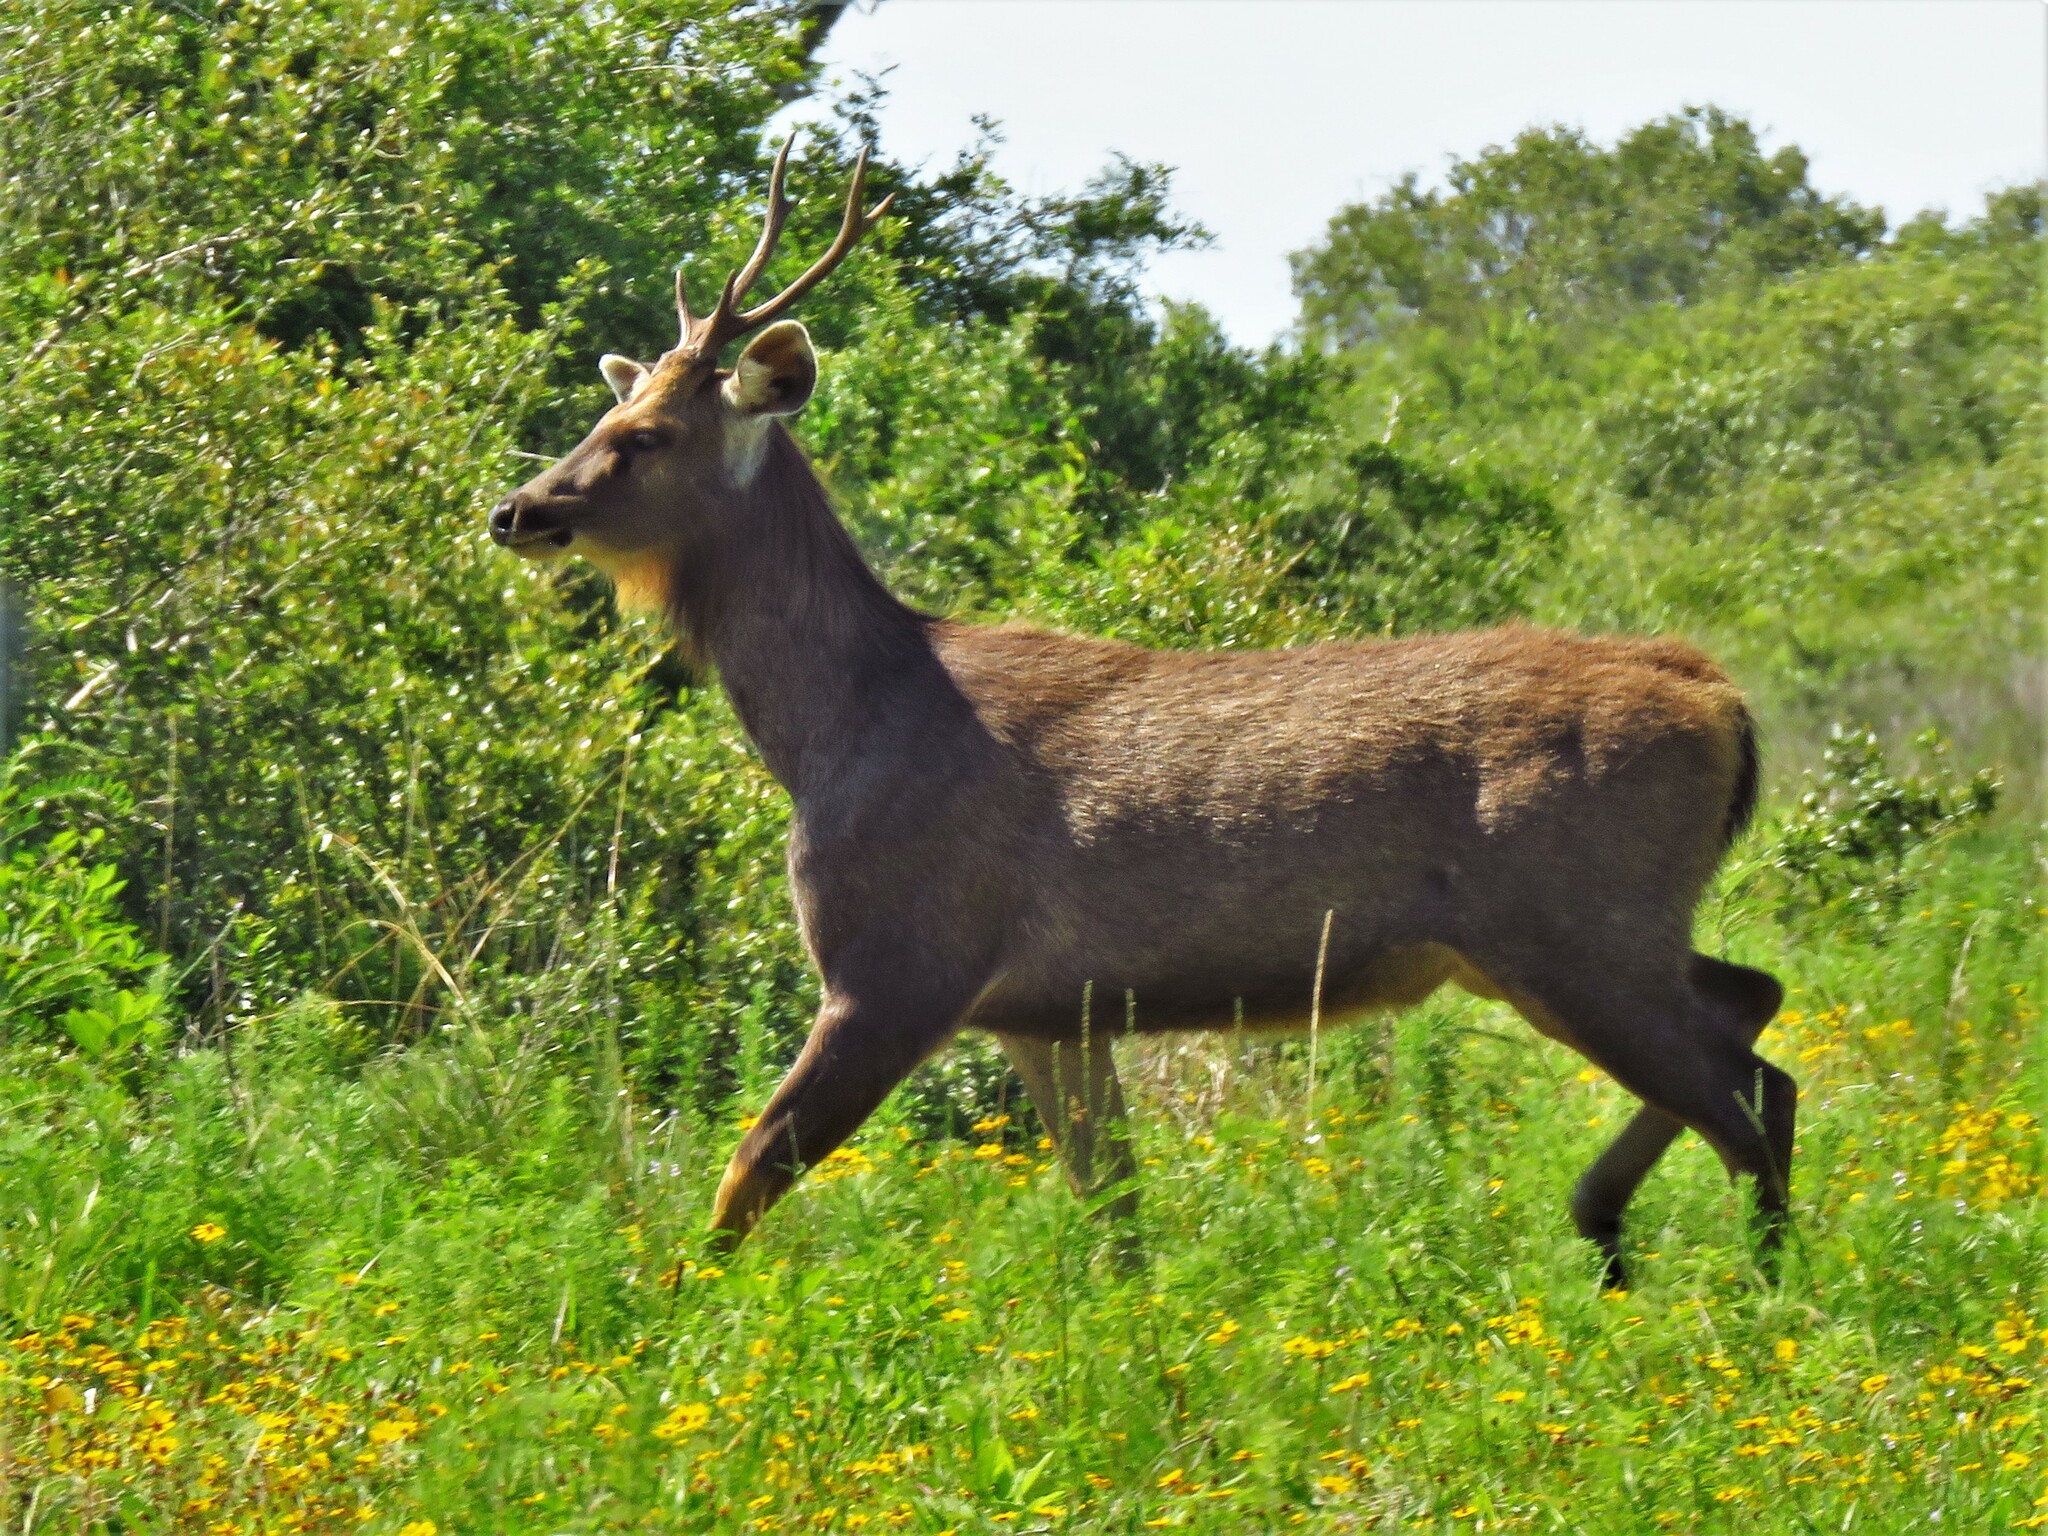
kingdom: Animalia
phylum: Chordata
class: Mammalia
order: Artiodactyla
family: Cervidae
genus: Rusa
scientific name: Rusa unicolor
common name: Sambar
